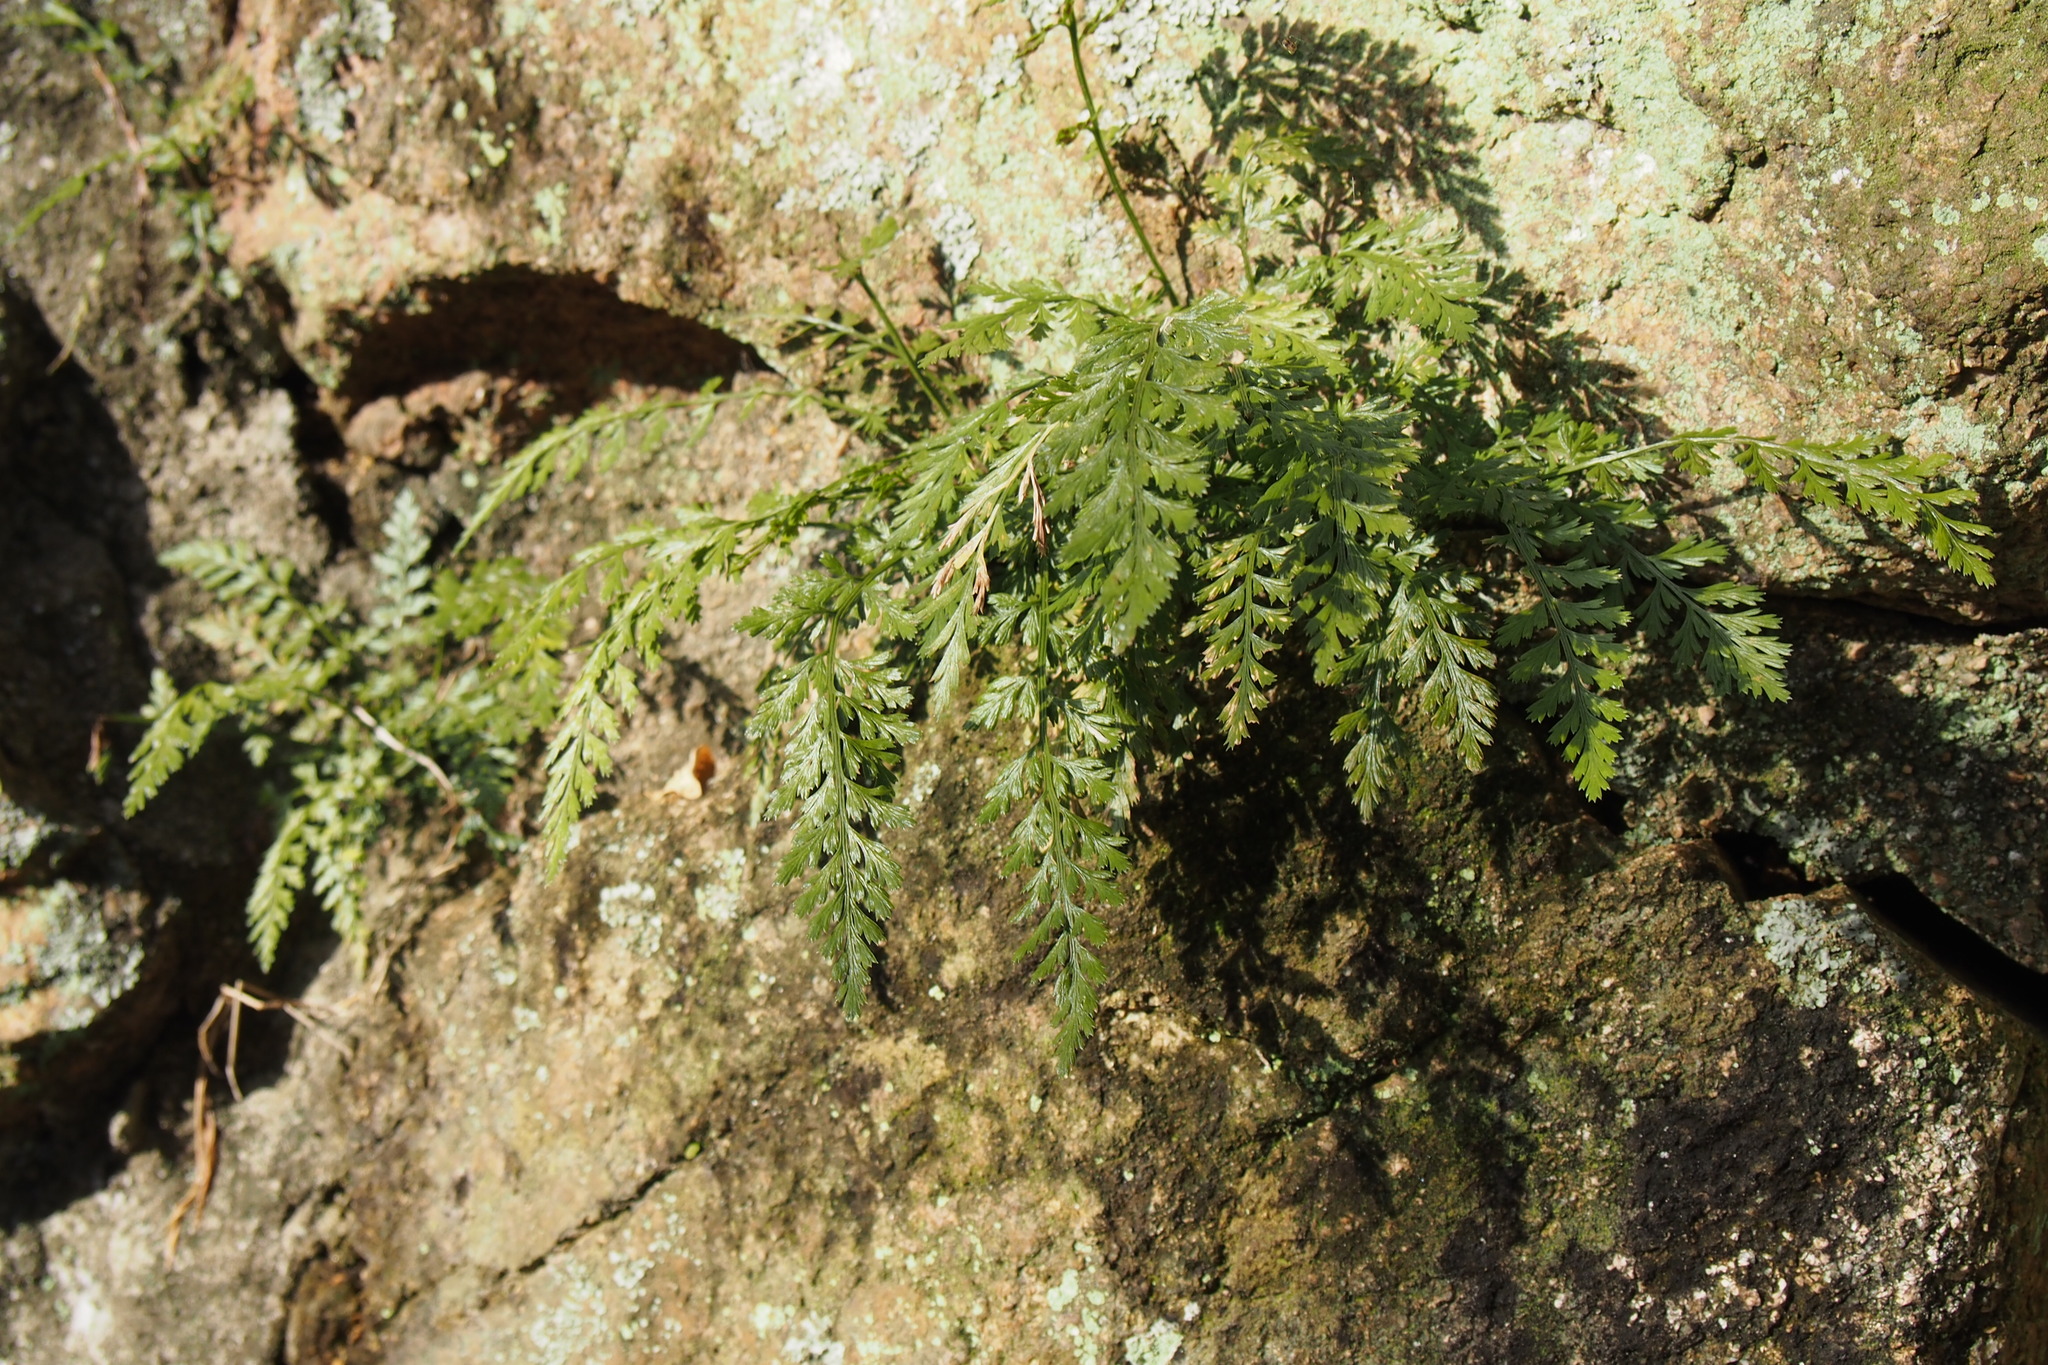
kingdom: Plantae
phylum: Tracheophyta
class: Polypodiopsida
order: Polypodiales
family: Aspleniaceae
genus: Asplenium
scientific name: Asplenium sarelii
